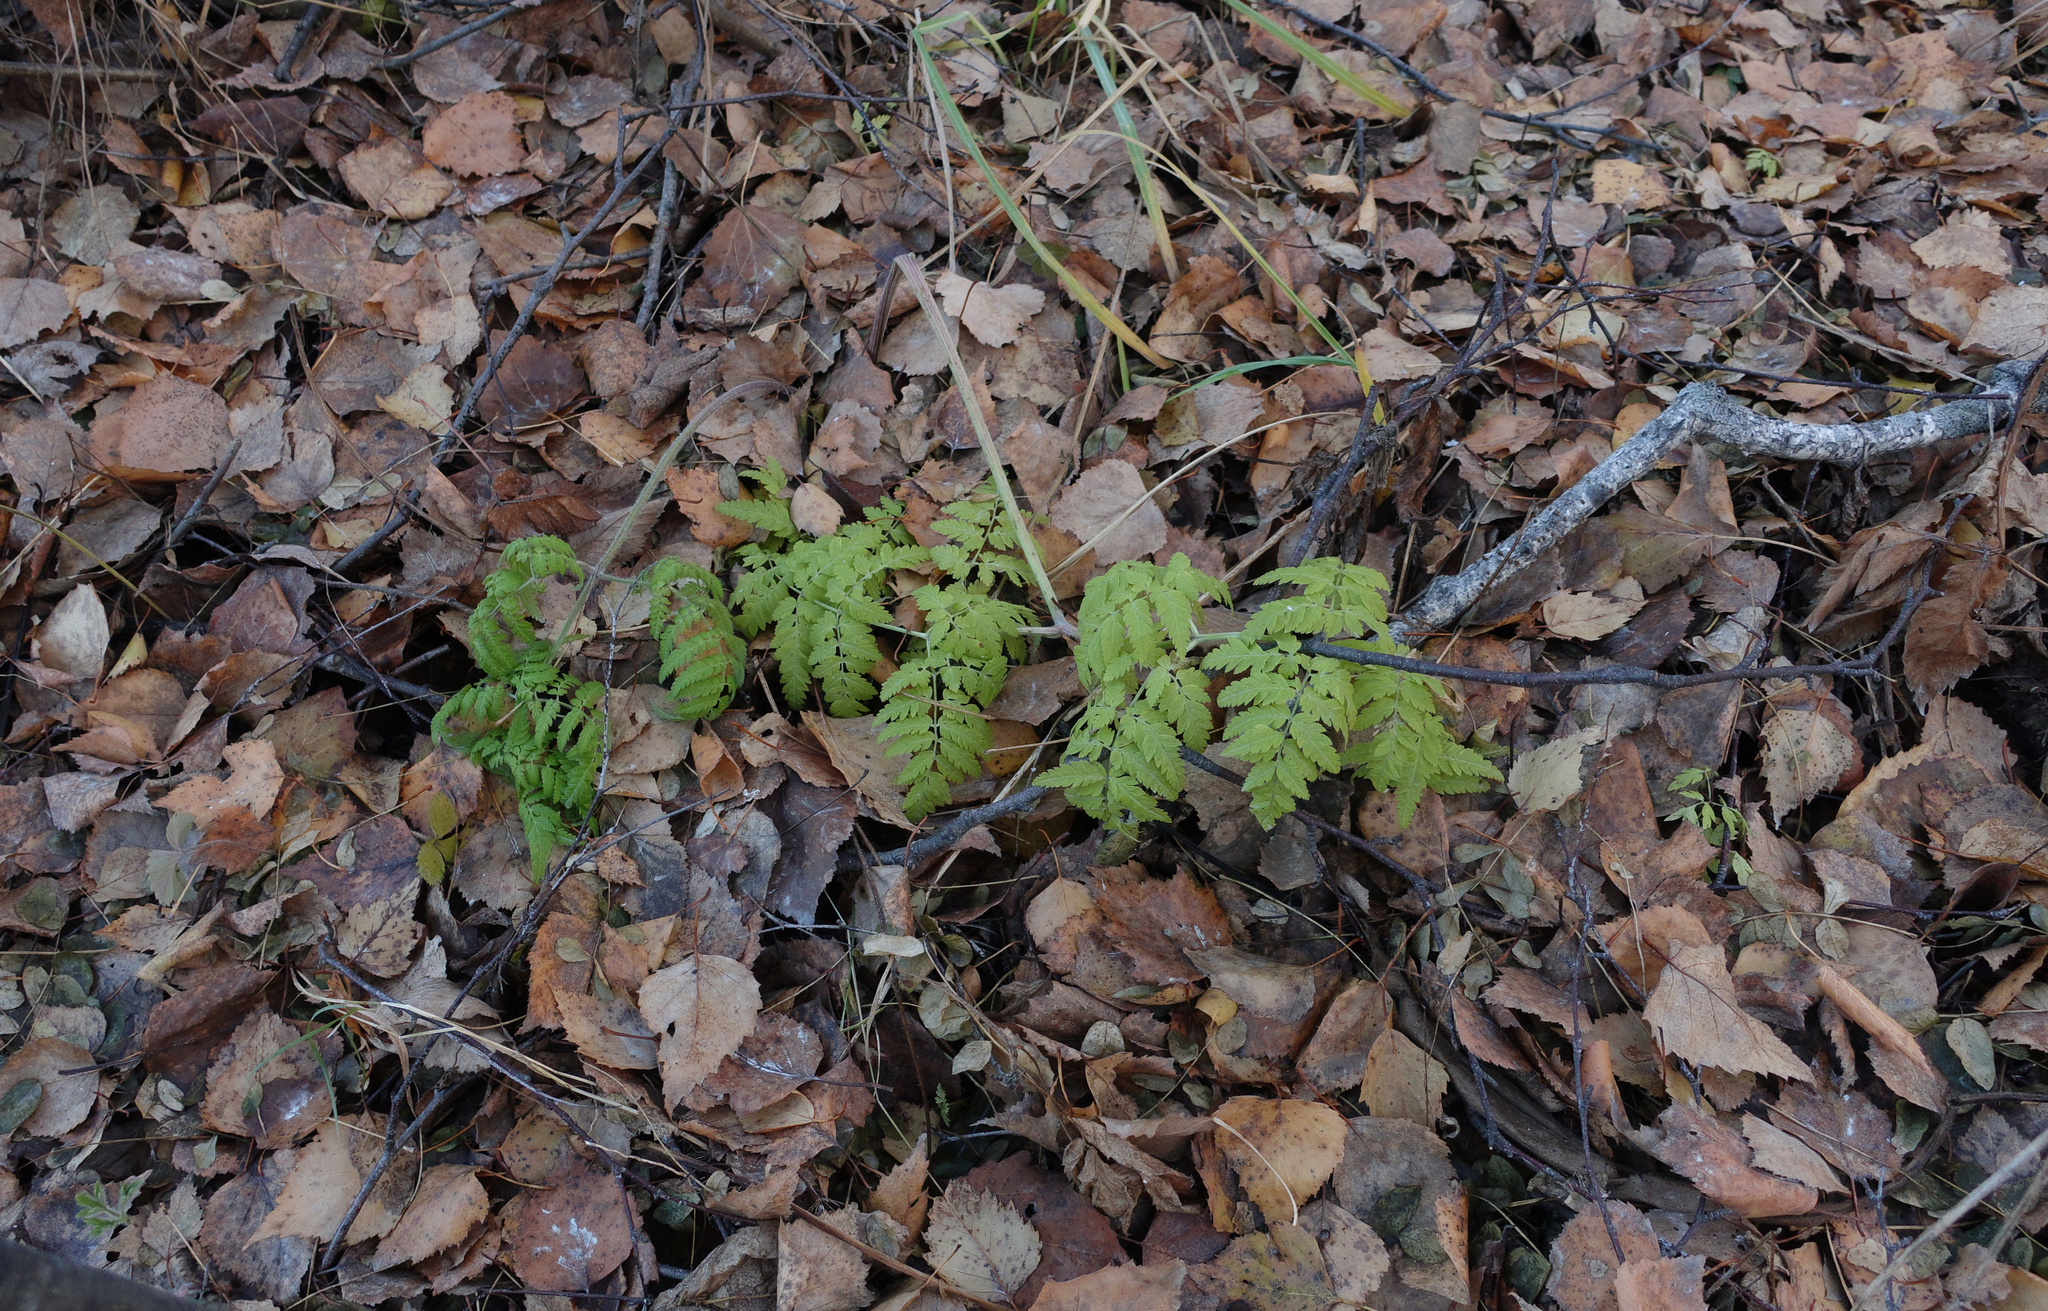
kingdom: Plantae
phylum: Tracheophyta
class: Magnoliopsida
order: Apiales
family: Apiaceae
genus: Anthriscus
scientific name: Anthriscus sylvestris
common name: Cow parsley
